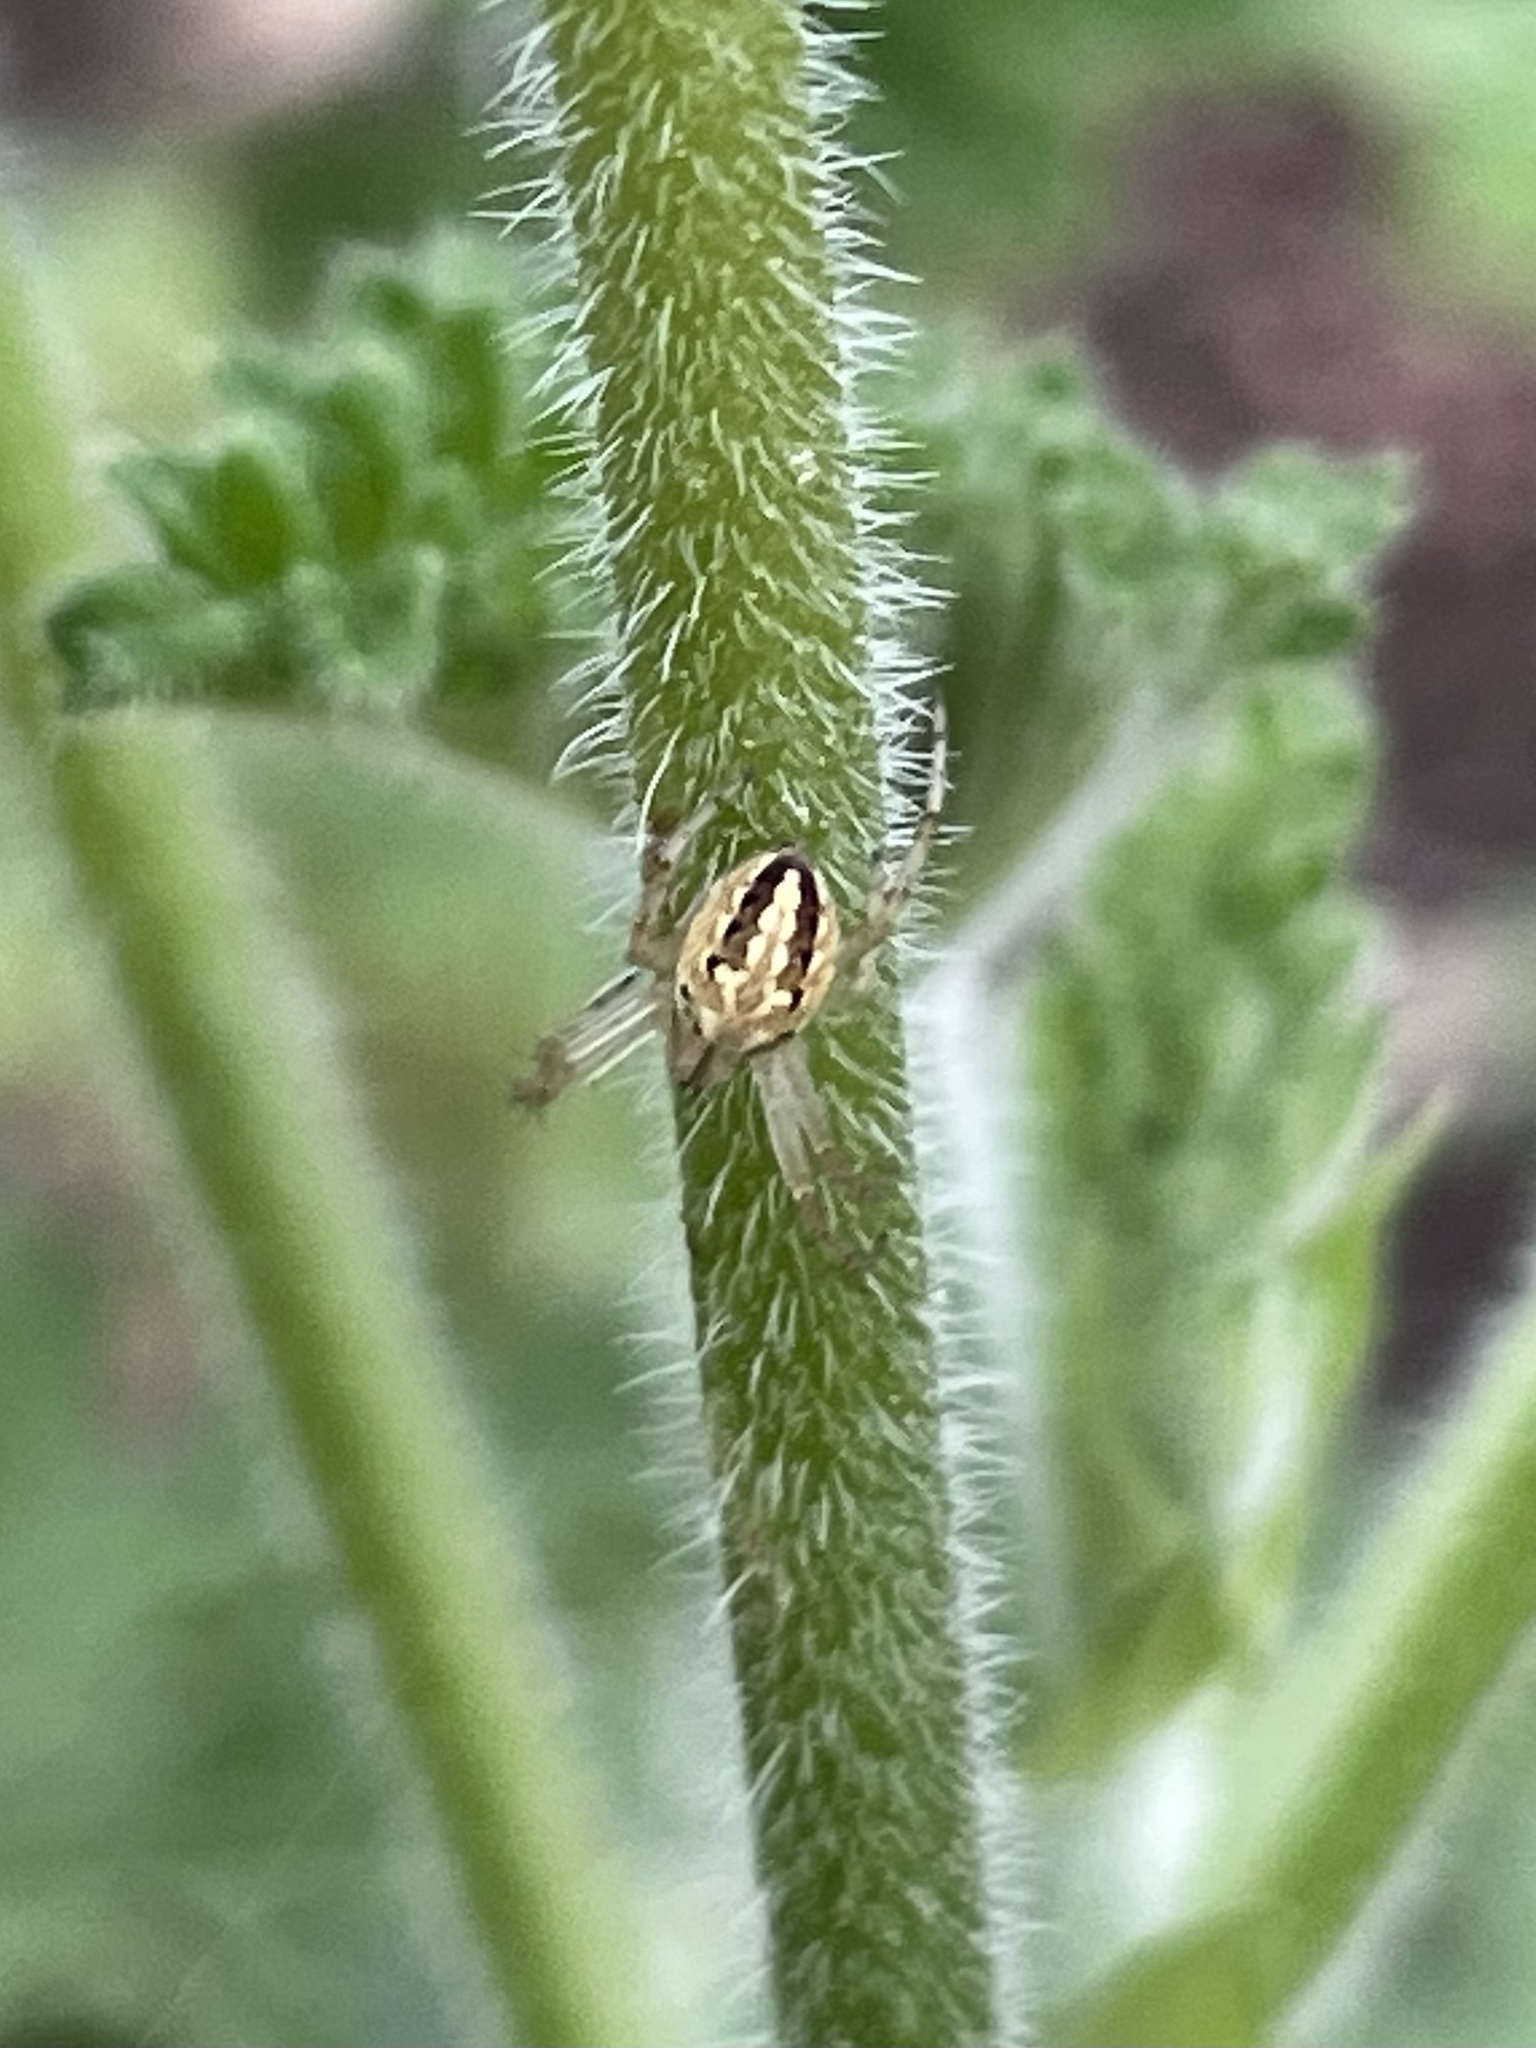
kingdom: Animalia
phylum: Arthropoda
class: Arachnida
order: Araneae
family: Araneidae
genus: Neoscona
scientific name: Neoscona oaxacensis
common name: Orb weavers
